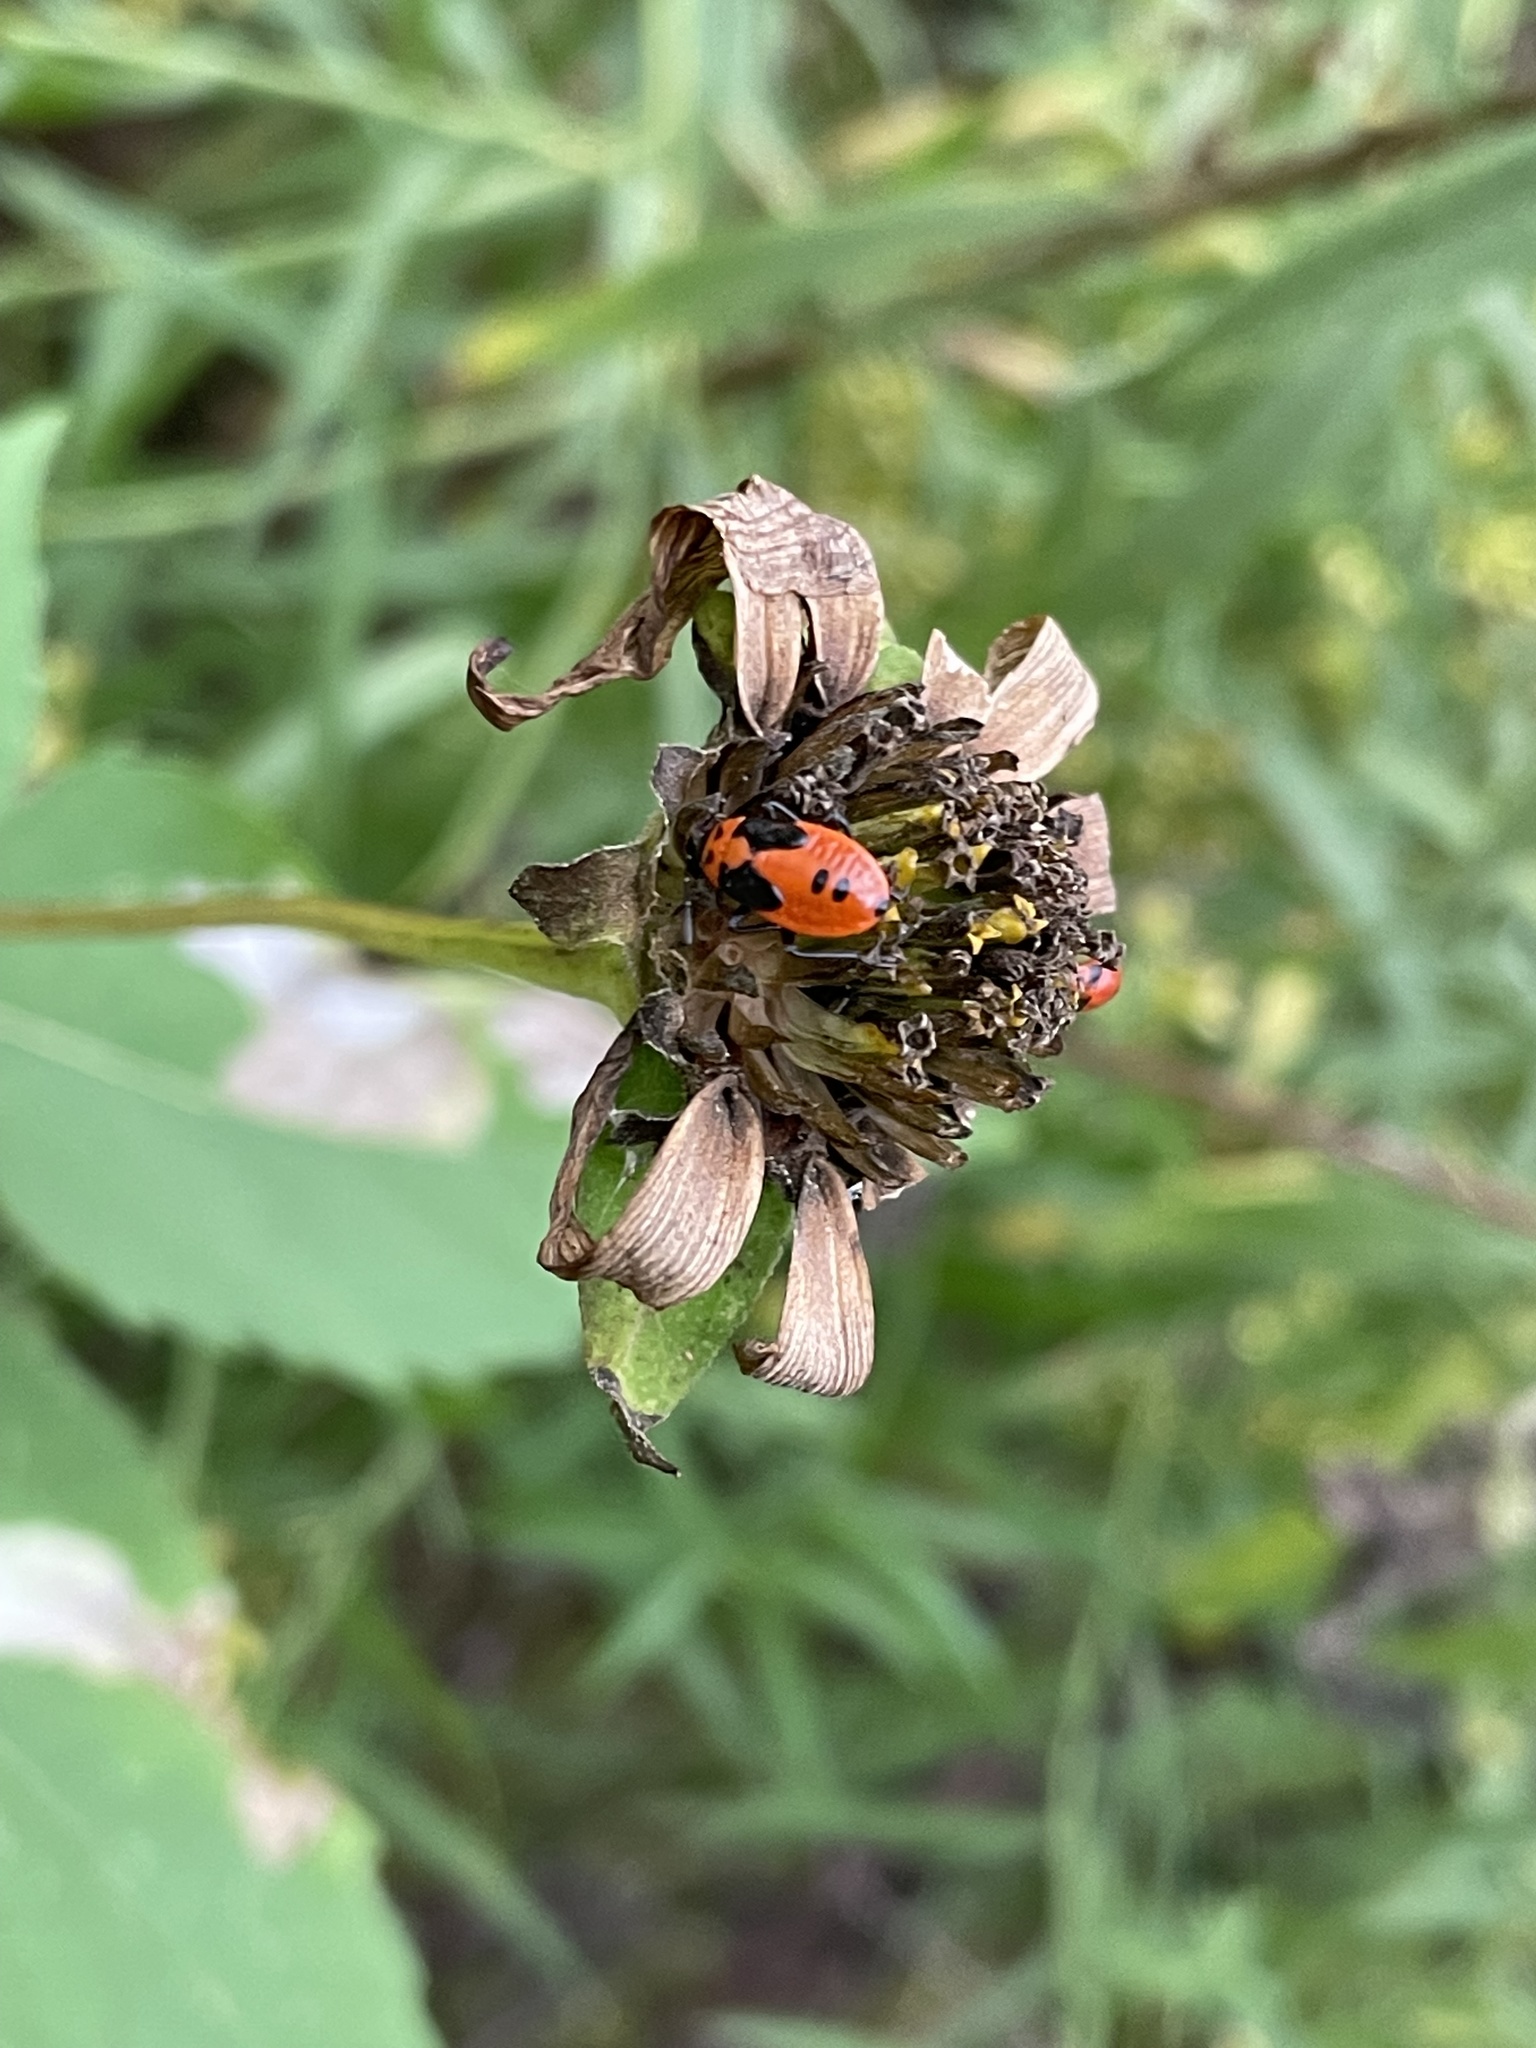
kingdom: Animalia
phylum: Arthropoda
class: Insecta
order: Hemiptera
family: Lygaeidae
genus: Lygaeus
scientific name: Lygaeus turcicus
